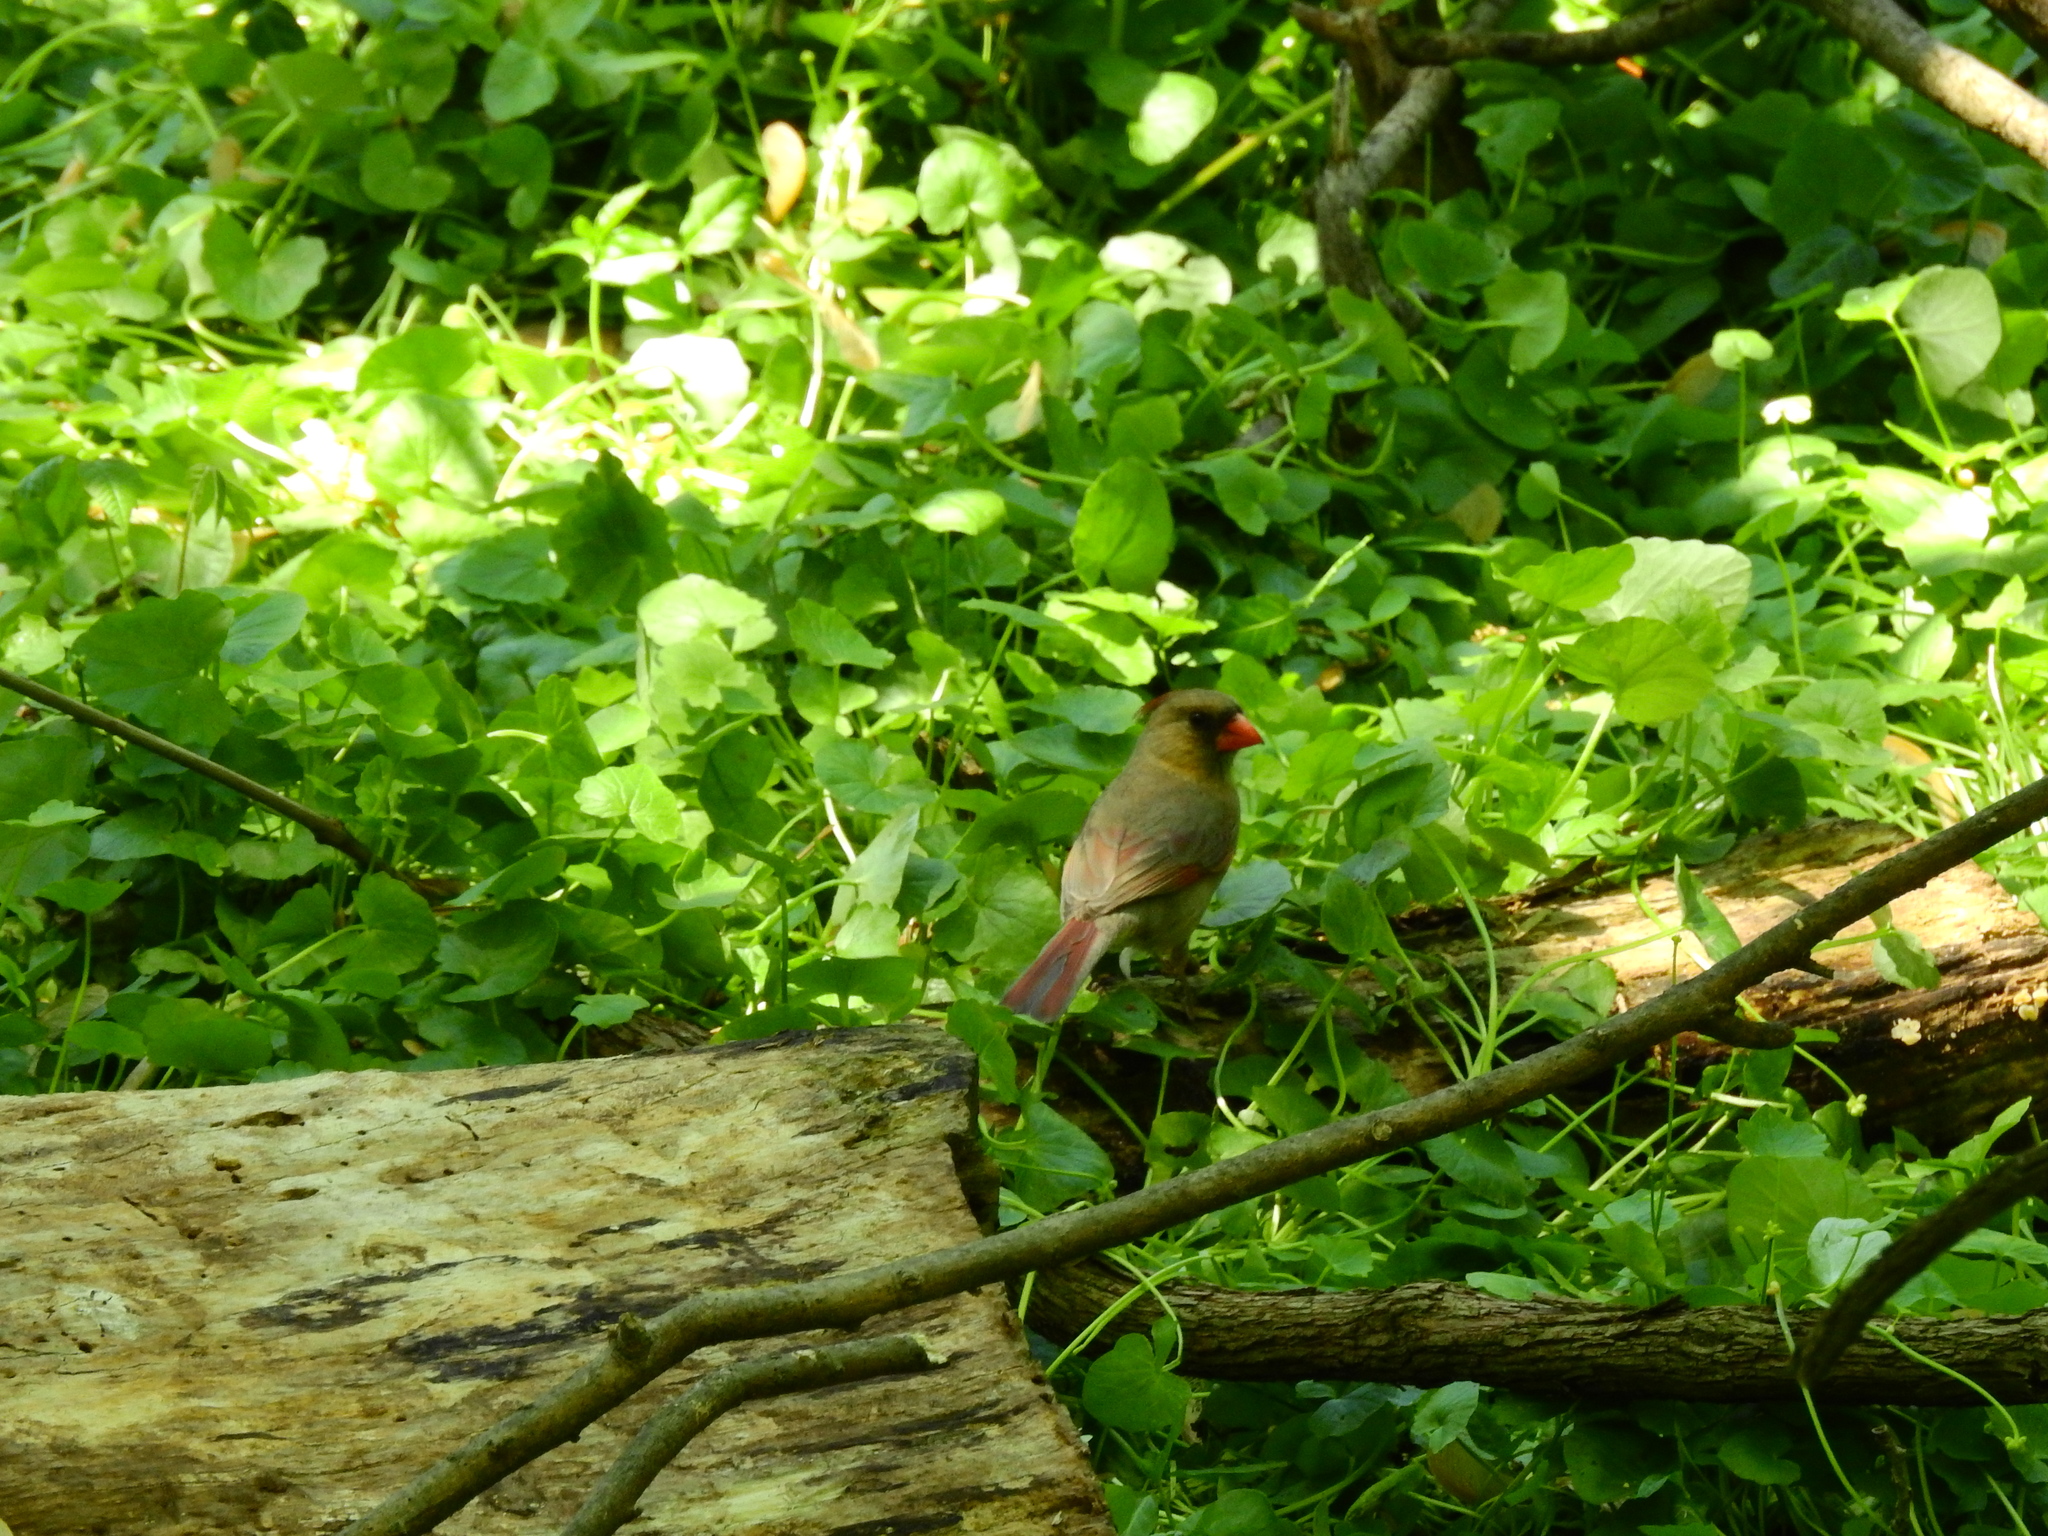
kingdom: Animalia
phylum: Chordata
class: Aves
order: Passeriformes
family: Cardinalidae
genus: Cardinalis
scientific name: Cardinalis cardinalis
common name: Northern cardinal
